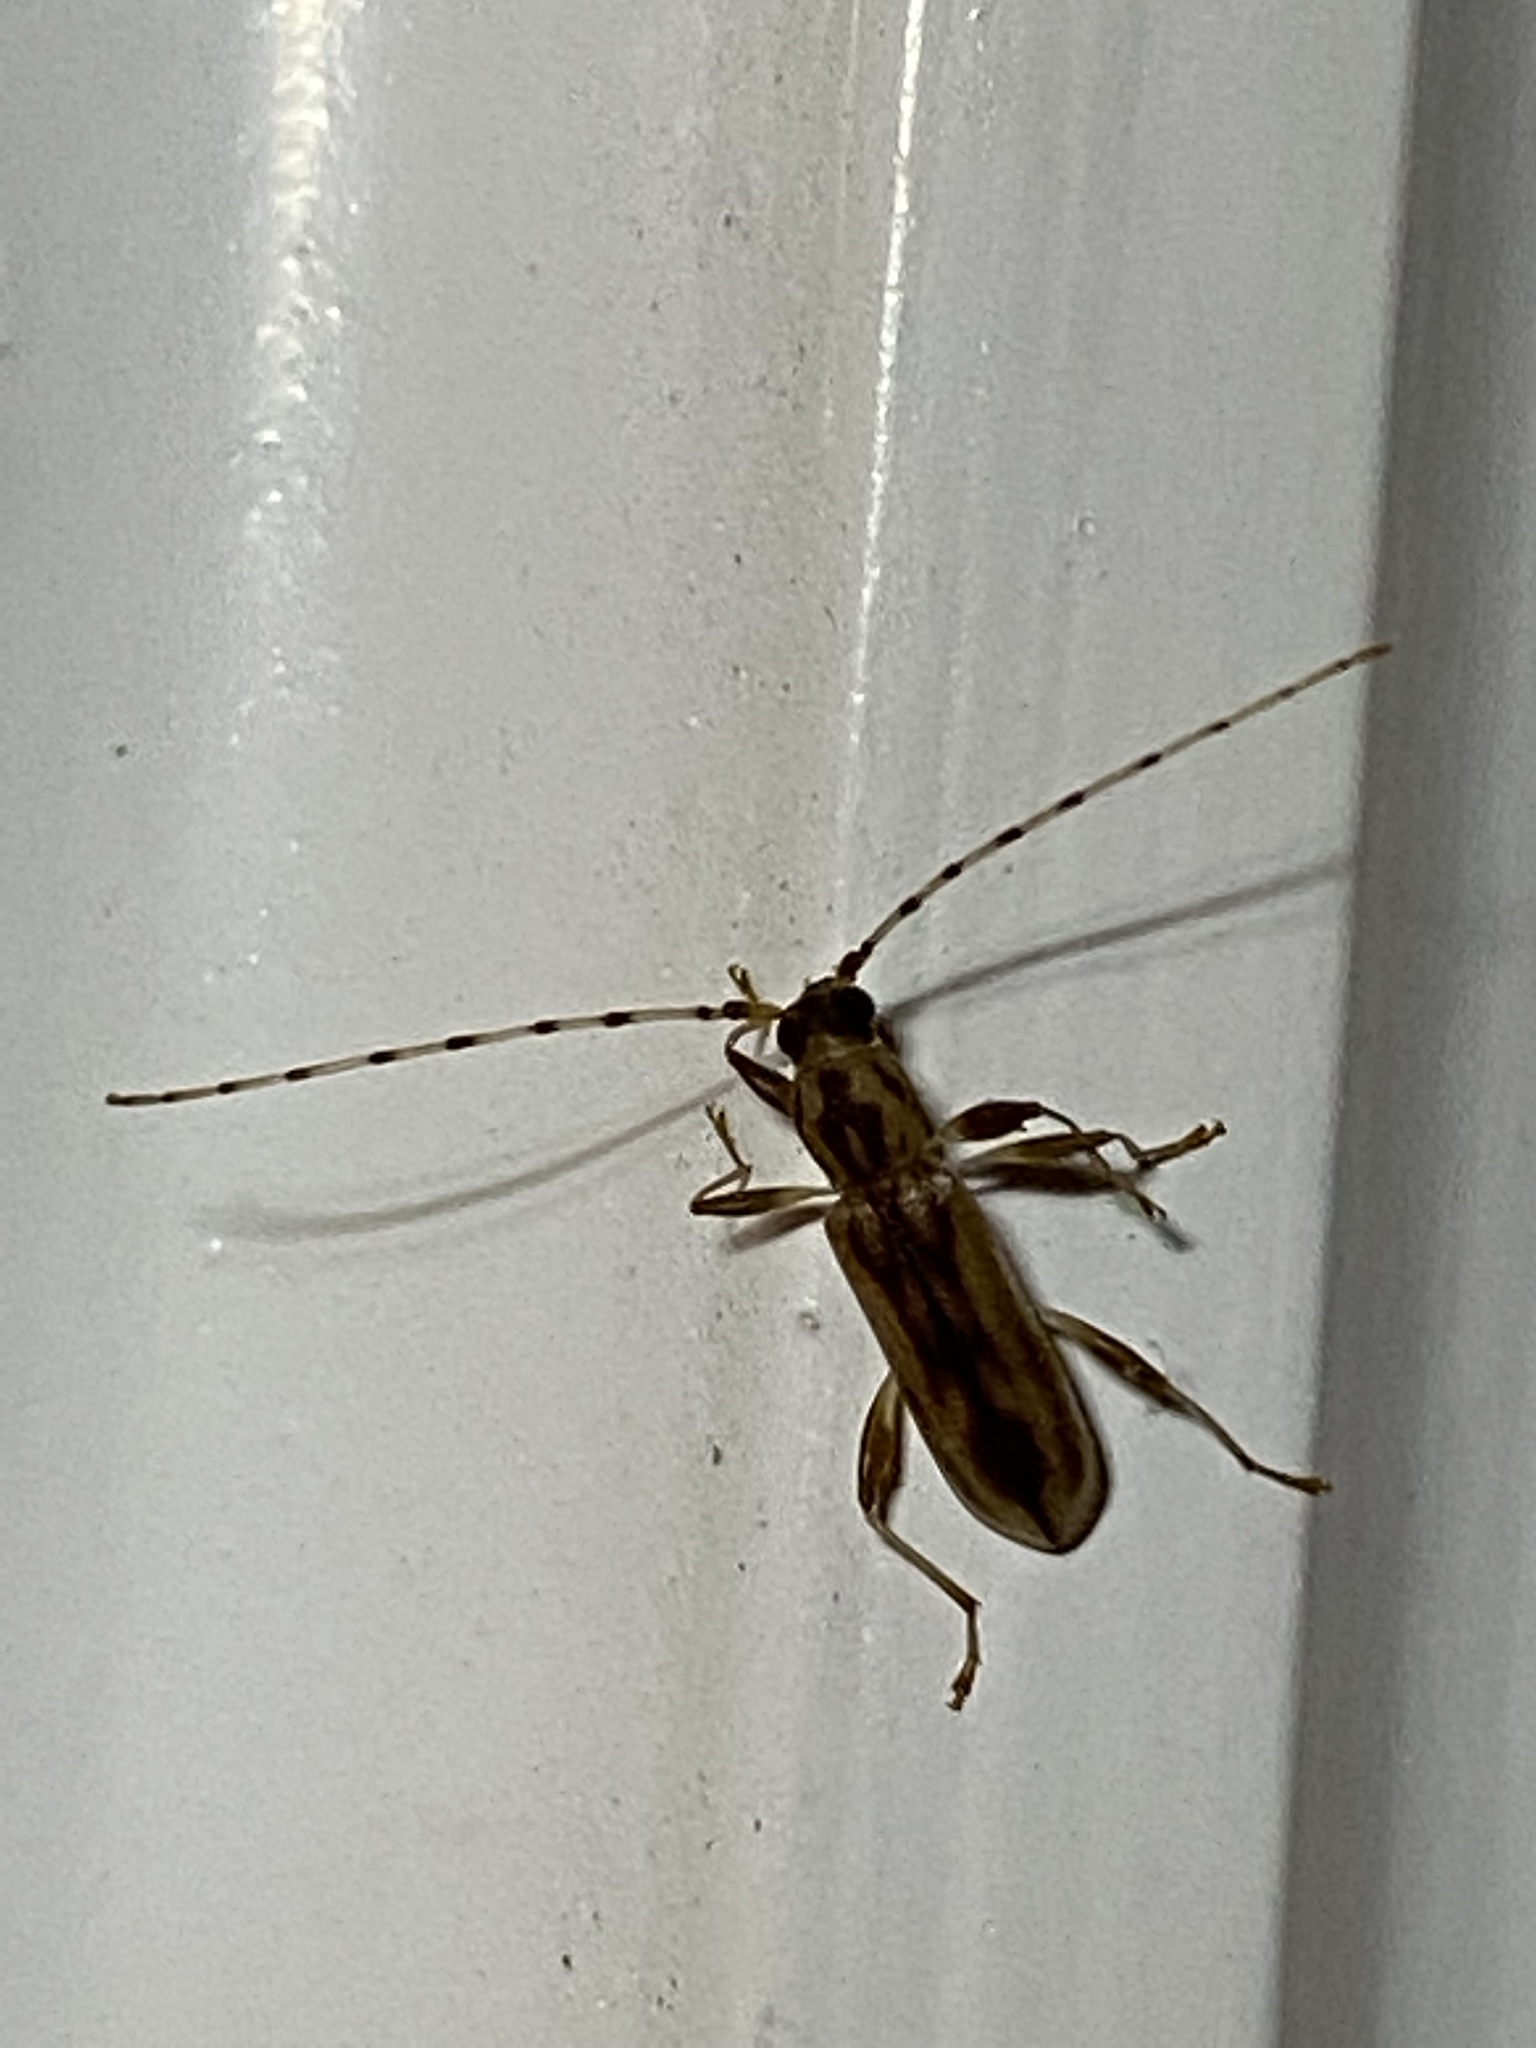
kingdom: Animalia
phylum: Arthropoda
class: Insecta
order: Coleoptera
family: Cerambycidae
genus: Curius
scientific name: Curius dentatus
